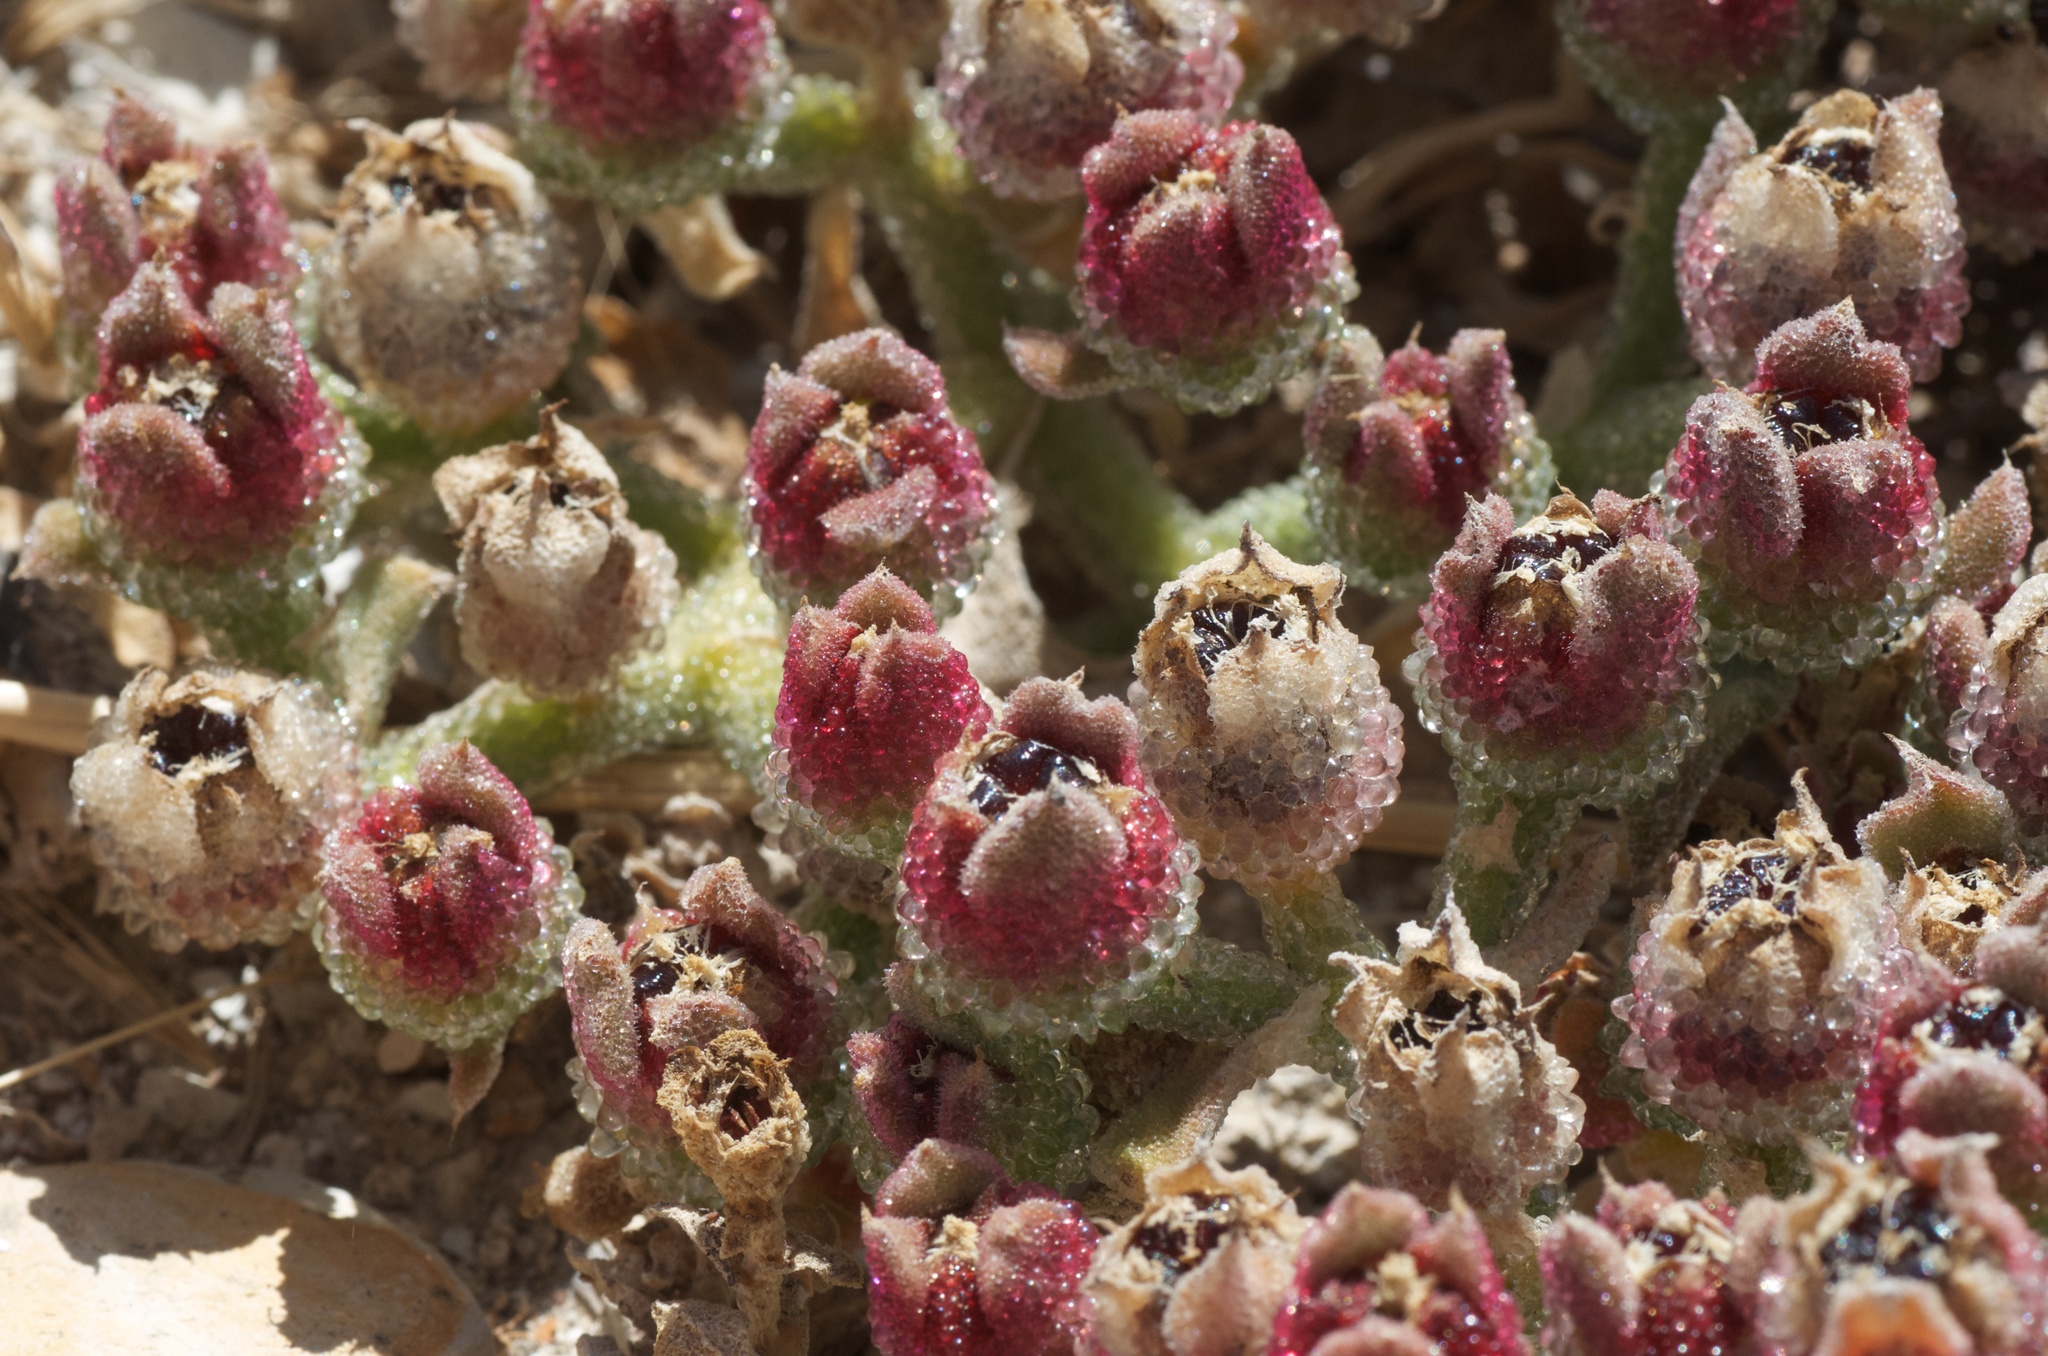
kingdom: Plantae
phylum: Tracheophyta
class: Magnoliopsida
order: Caryophyllales
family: Aizoaceae
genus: Mesembryanthemum
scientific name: Mesembryanthemum crystallinum
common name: Common iceplant
